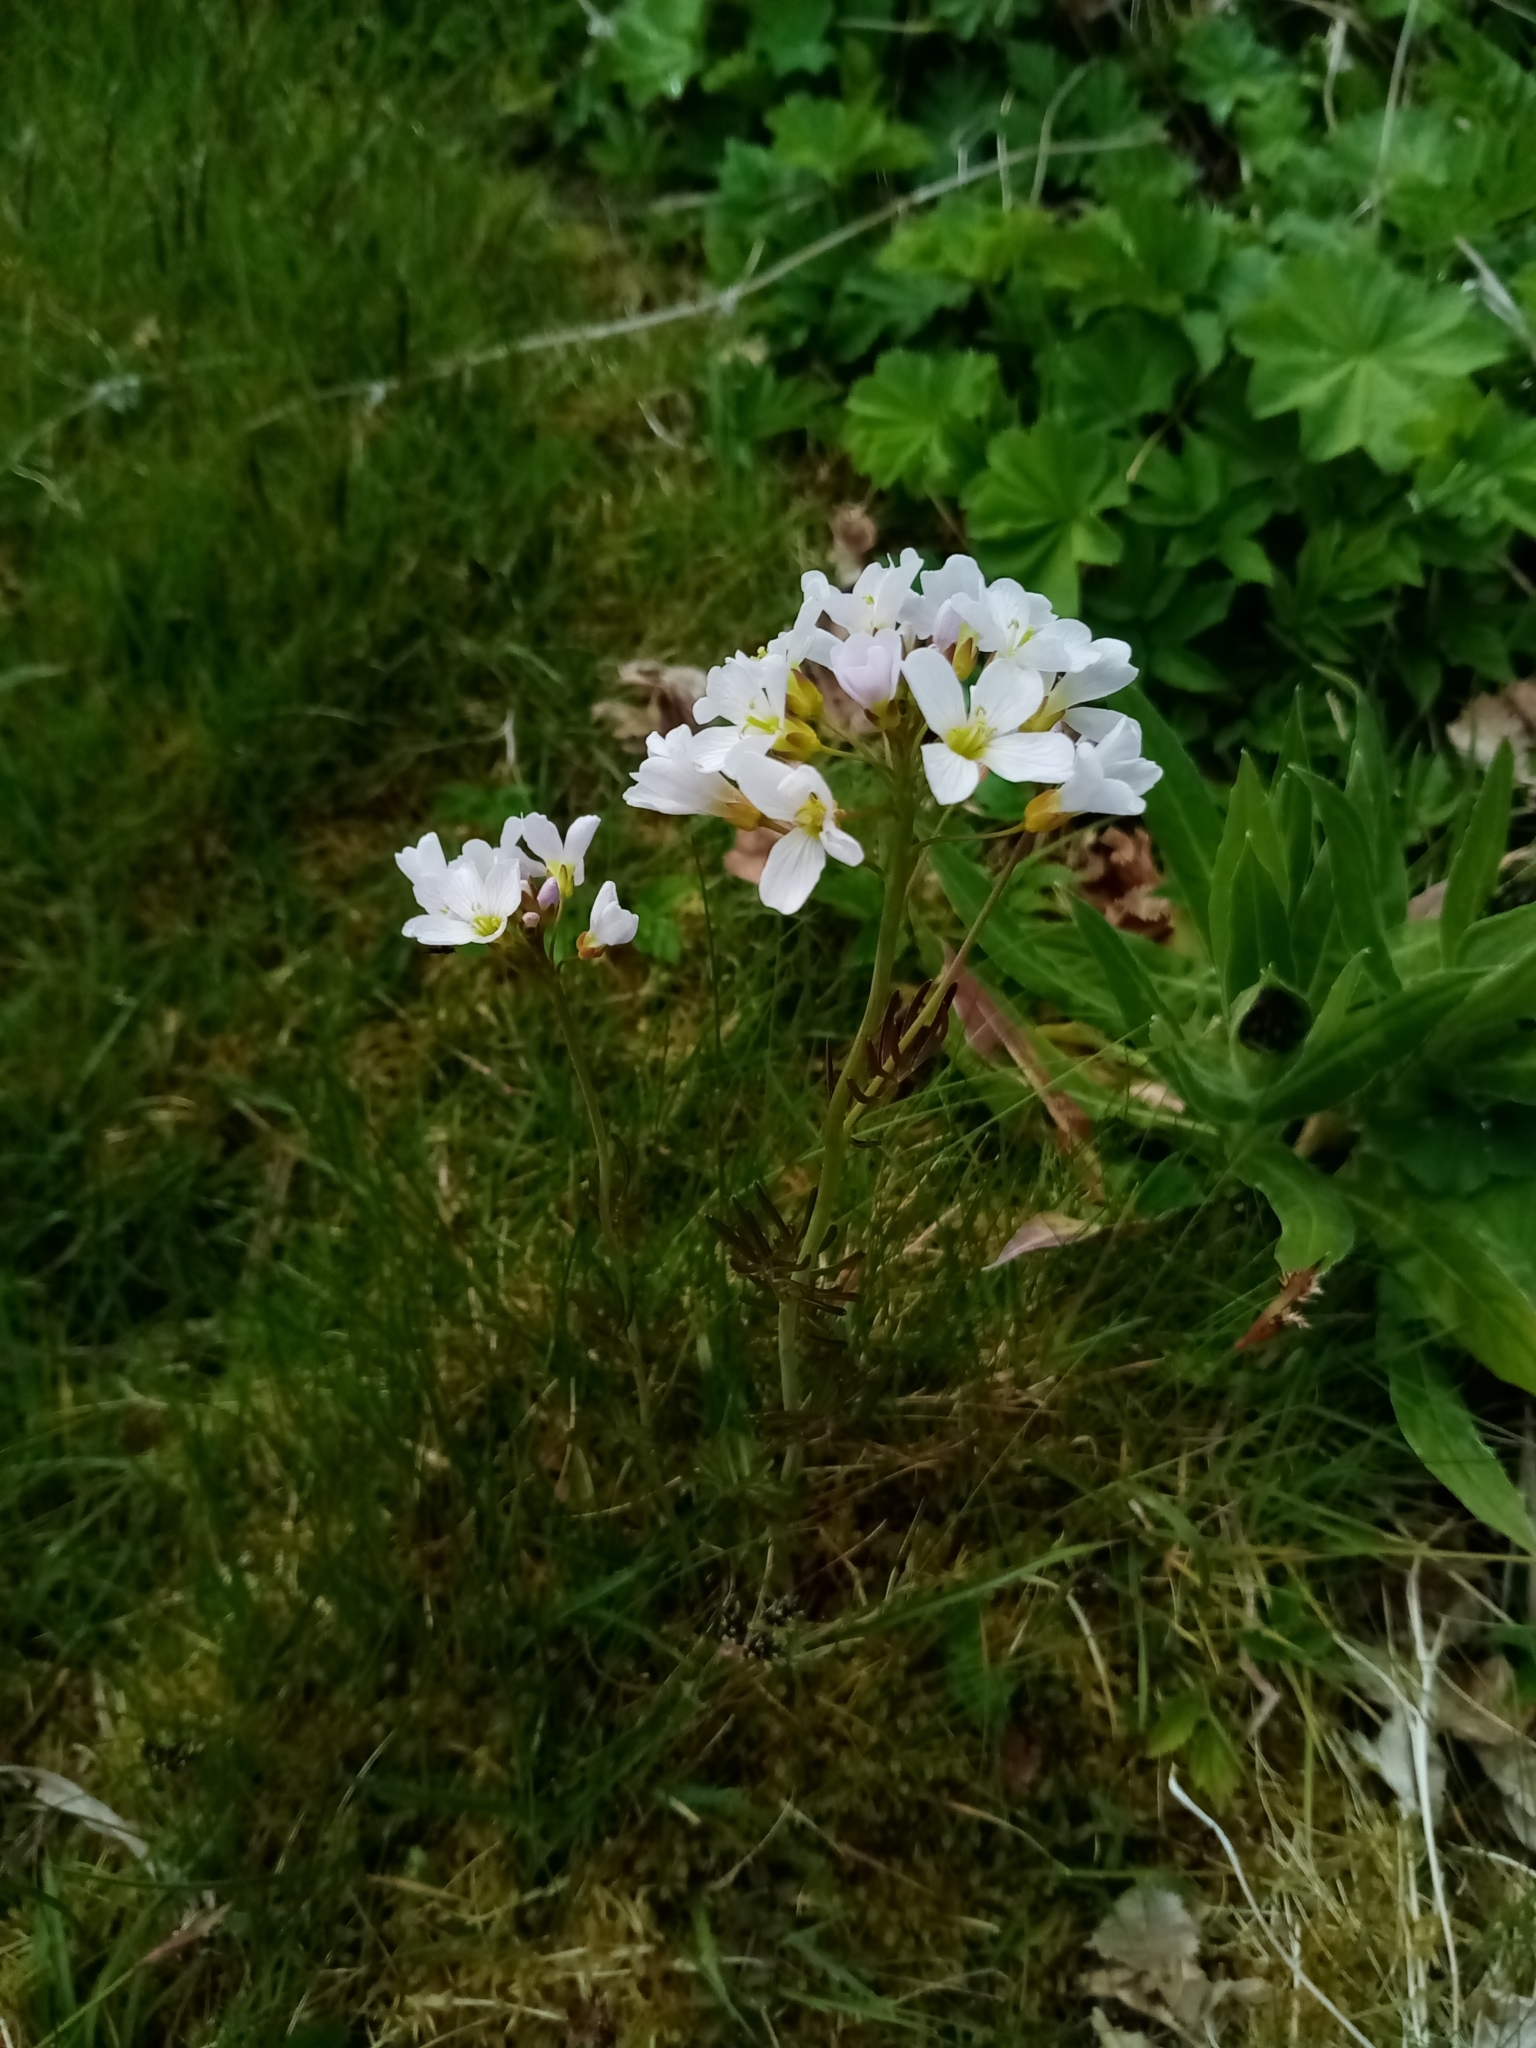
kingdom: Plantae
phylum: Tracheophyta
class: Magnoliopsida
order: Brassicales
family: Brassicaceae
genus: Cardamine
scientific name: Cardamine pratensis
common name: Cuckoo flower
